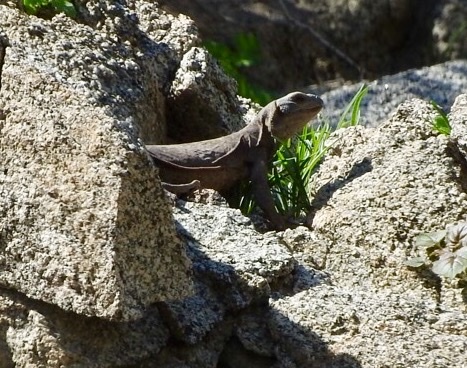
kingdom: Animalia
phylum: Chordata
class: Squamata
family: Iguanidae
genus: Sauromalus
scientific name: Sauromalus ater
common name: Northern chuckwalla
